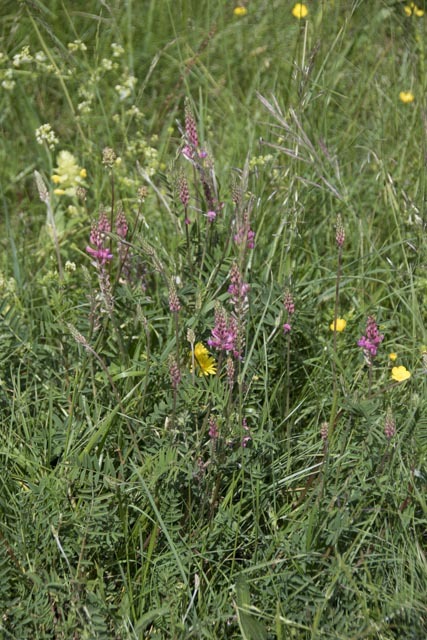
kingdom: Plantae
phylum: Tracheophyta
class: Magnoliopsida
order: Fabales
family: Fabaceae
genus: Onobrychis
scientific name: Onobrychis viciifolia
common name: Sainfoin
